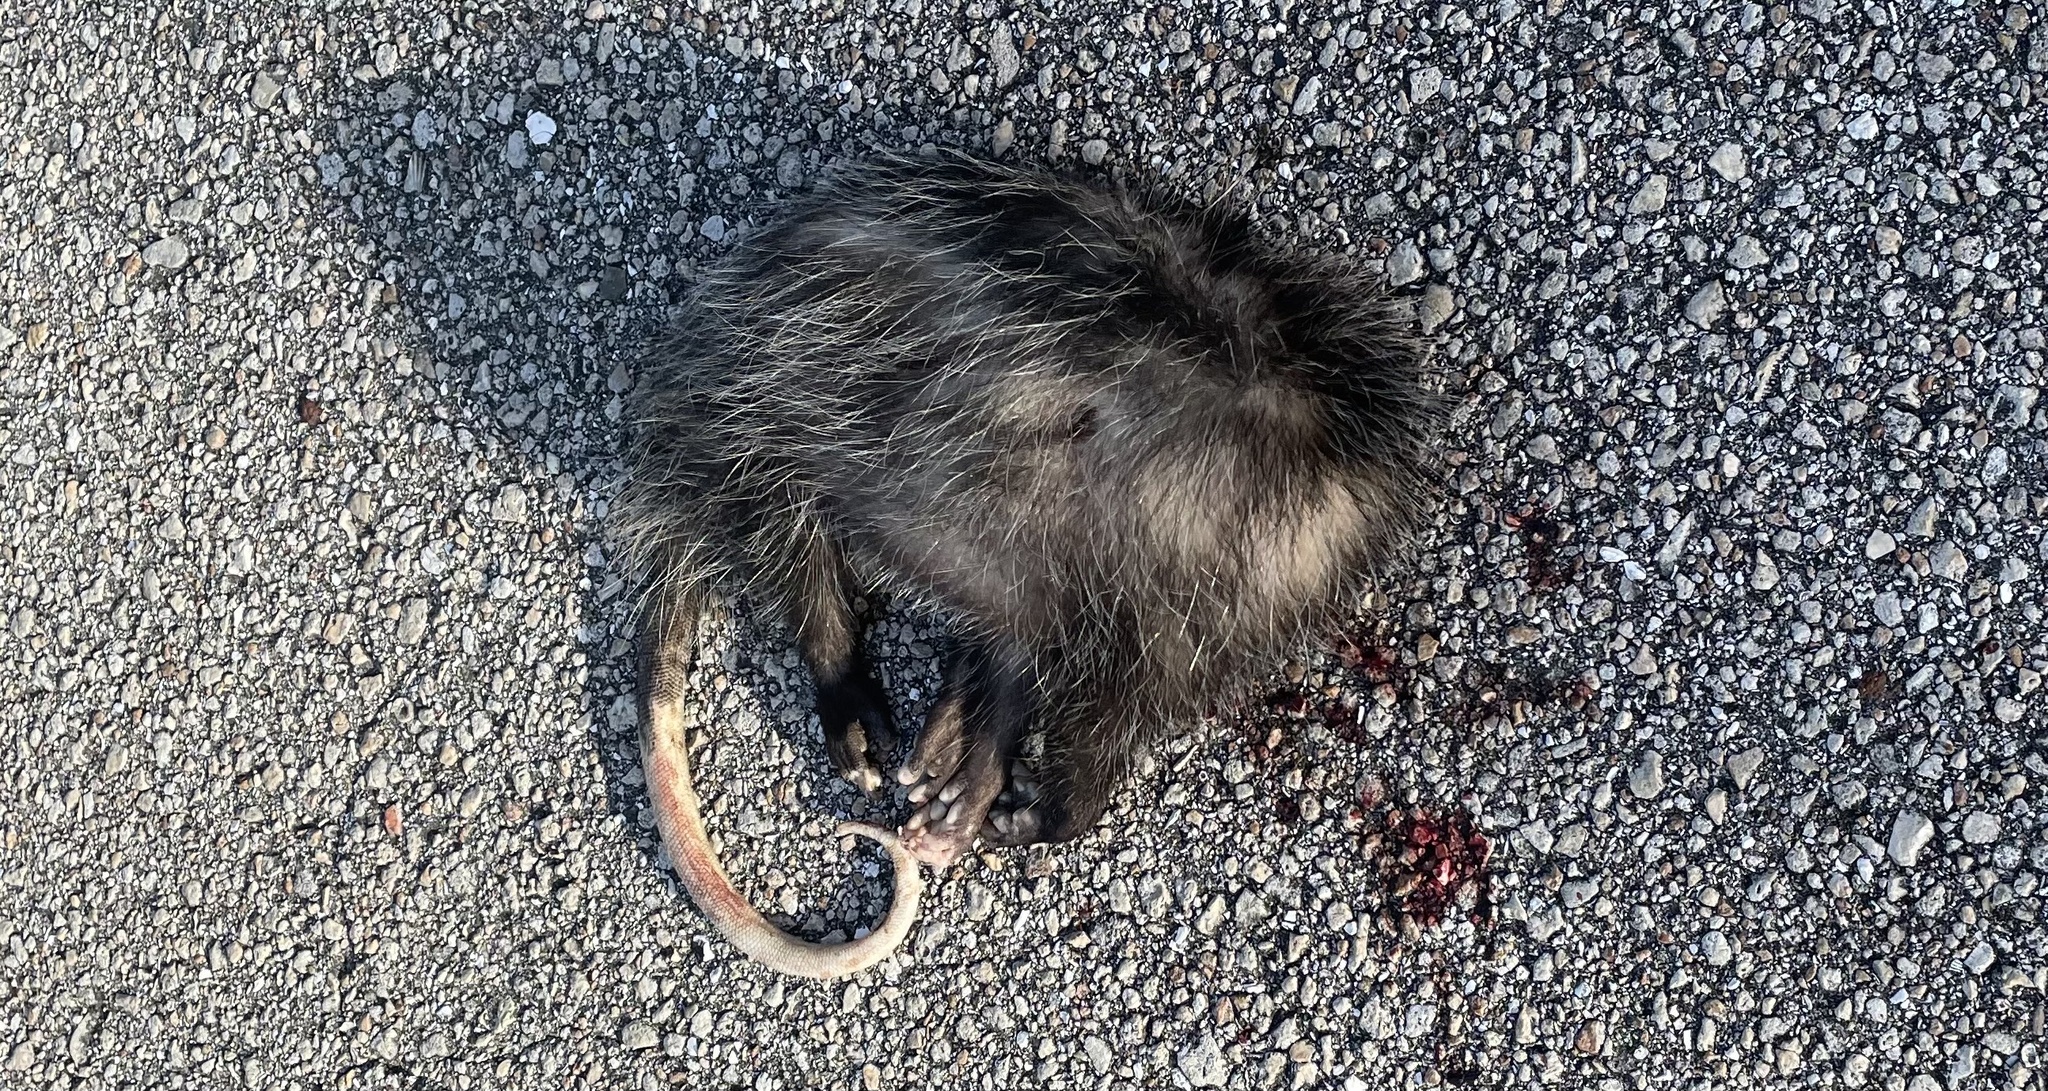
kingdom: Animalia
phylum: Chordata
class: Mammalia
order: Didelphimorphia
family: Didelphidae
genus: Didelphis
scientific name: Didelphis virginiana
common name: Virginia opossum
